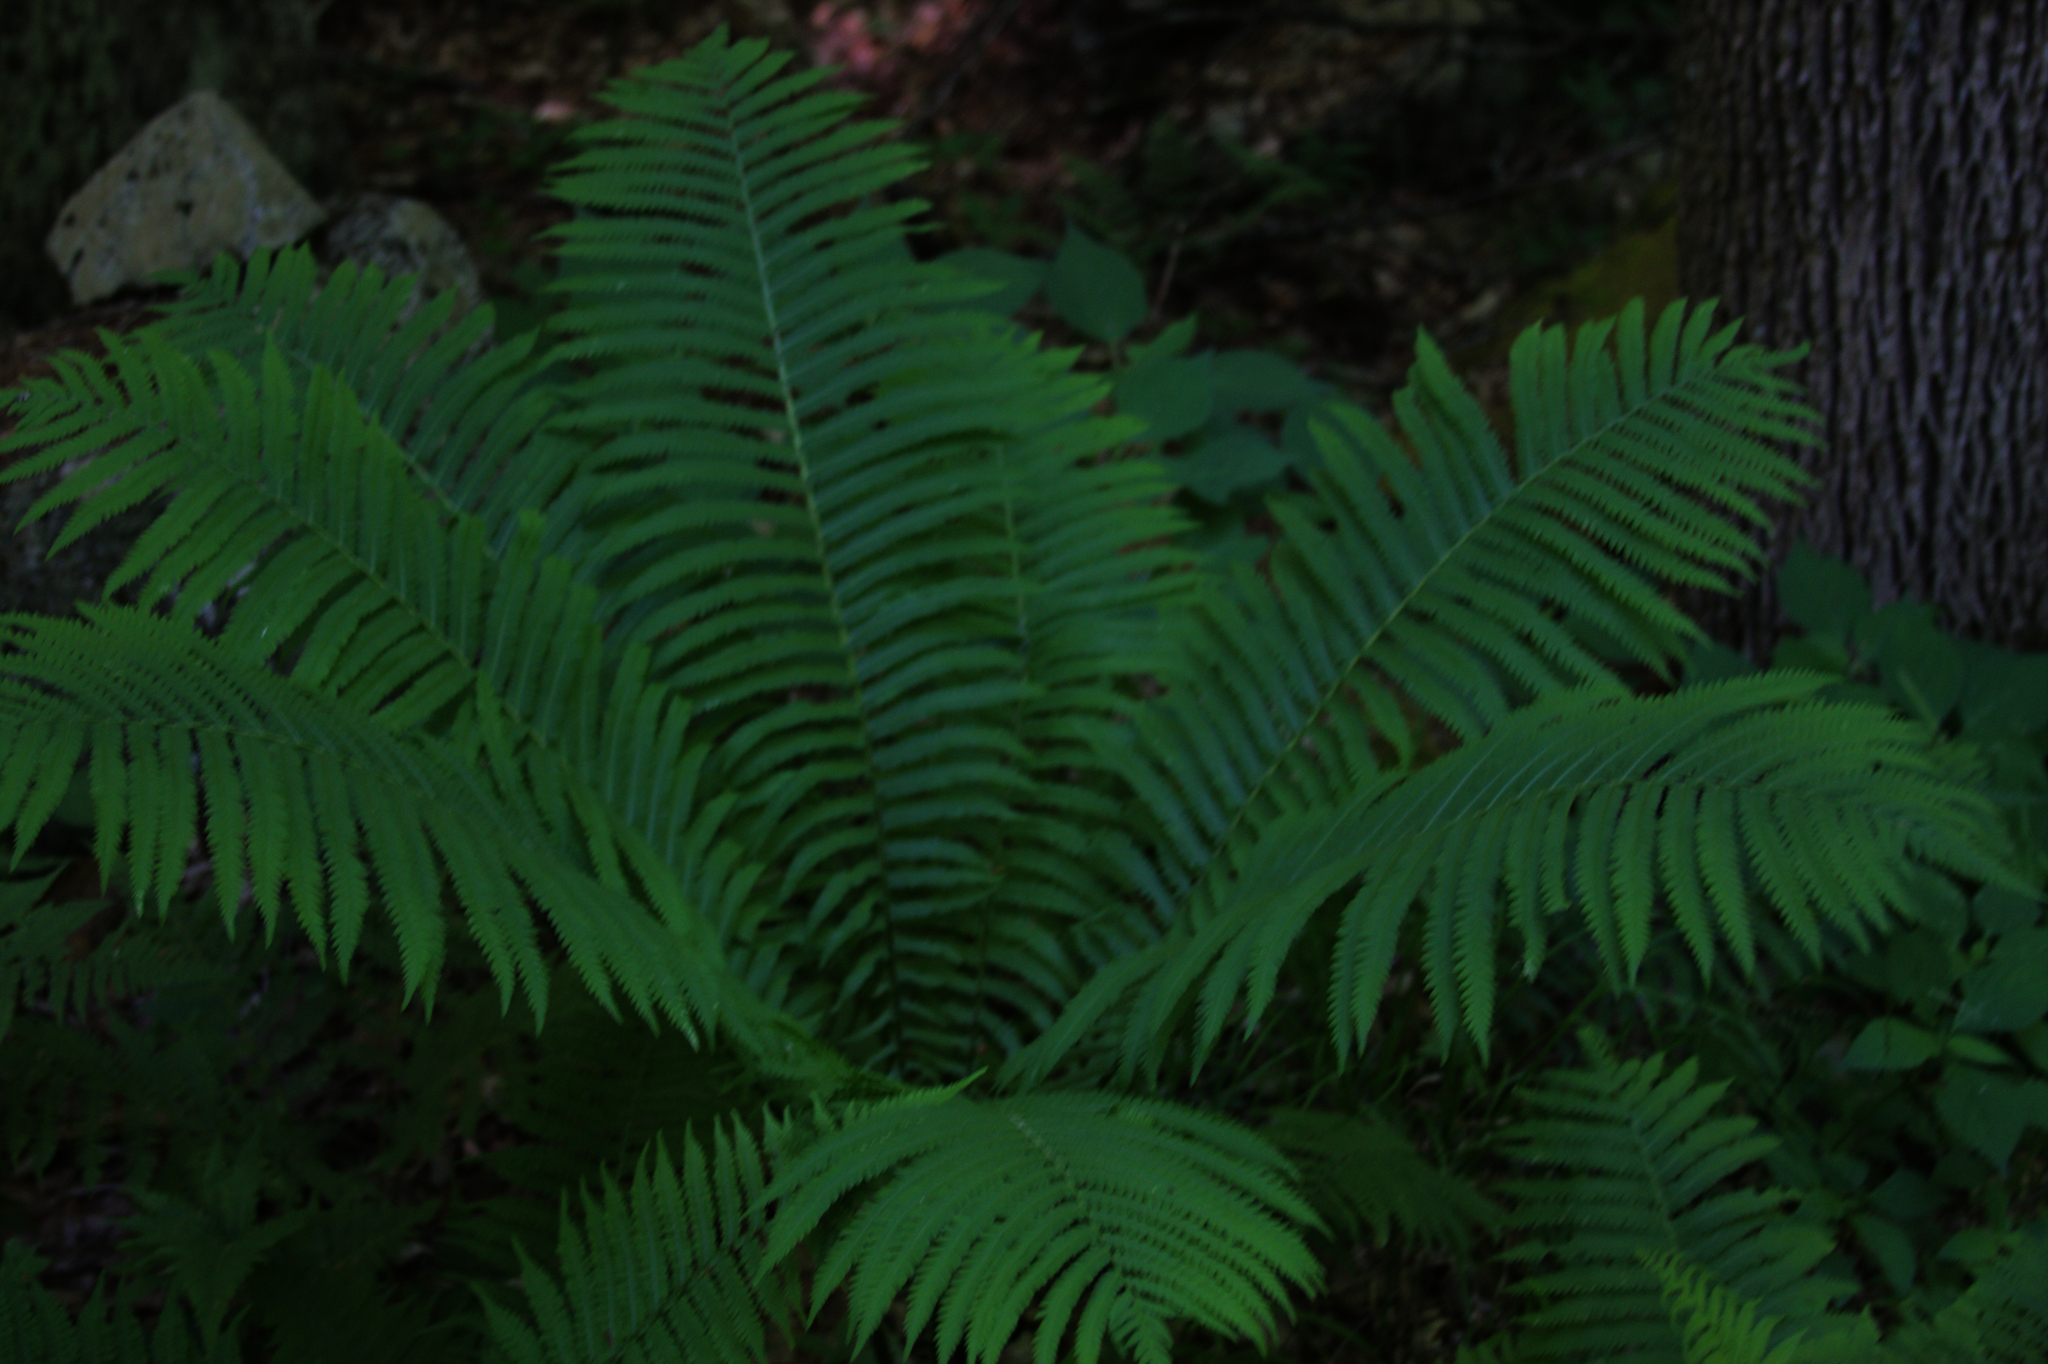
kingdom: Plantae
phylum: Tracheophyta
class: Polypodiopsida
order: Polypodiales
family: Onocleaceae
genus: Matteuccia
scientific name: Matteuccia struthiopteris
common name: Ostrich fern
